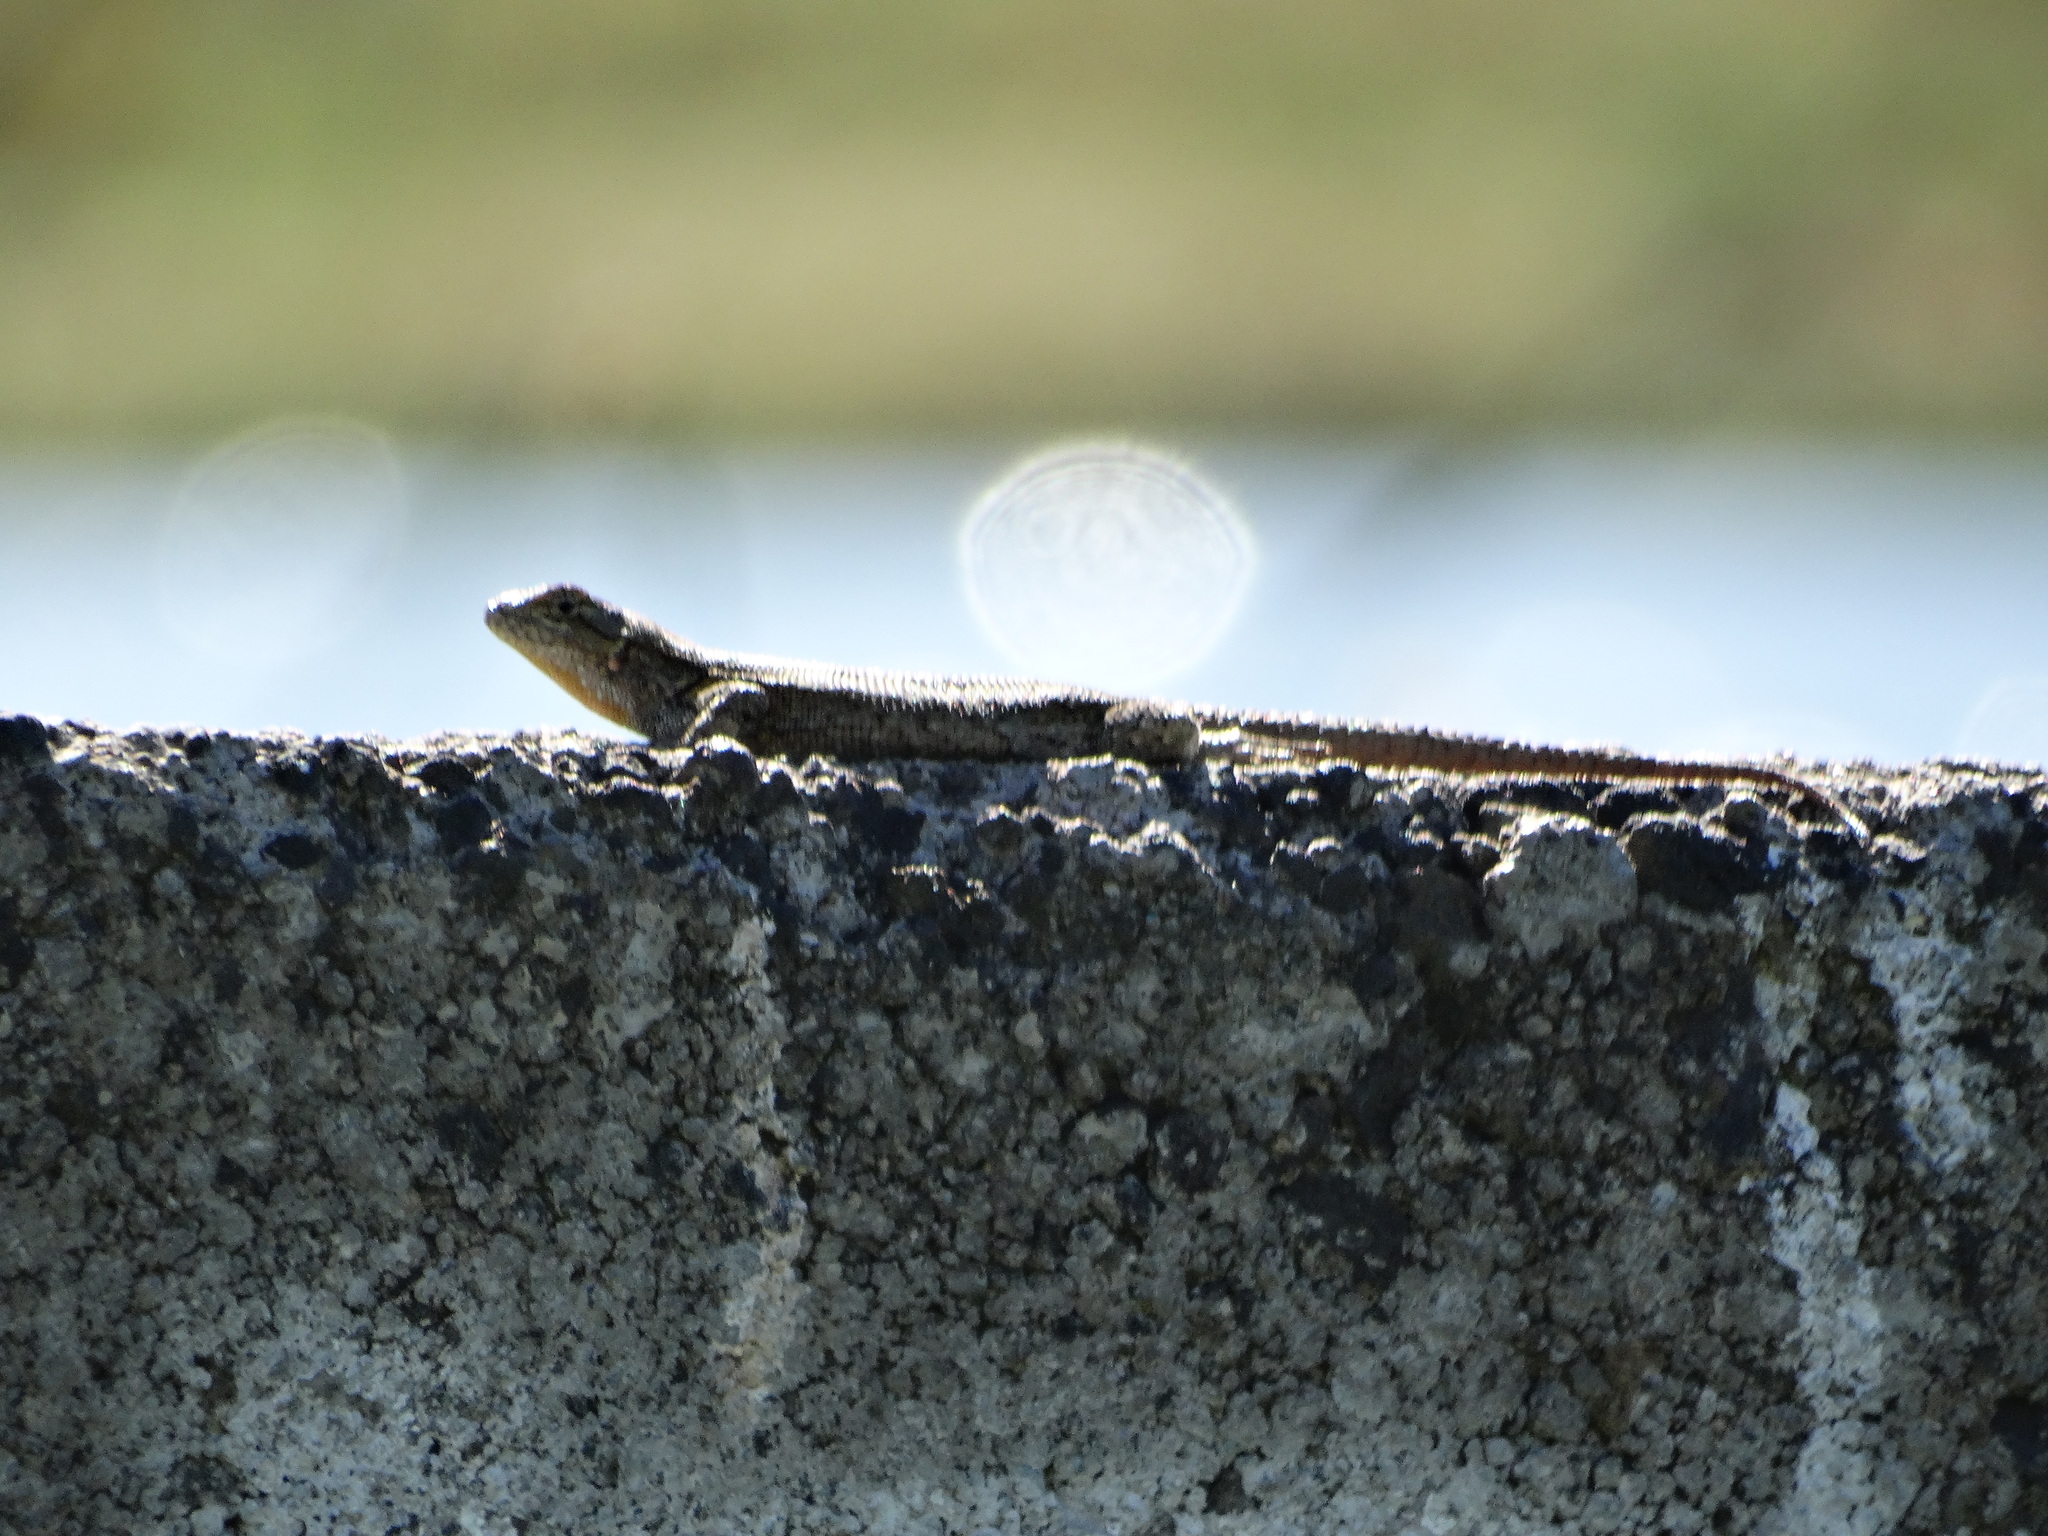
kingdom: Animalia
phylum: Chordata
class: Squamata
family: Phrynosomatidae
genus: Sceloporus
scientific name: Sceloporus grammicus
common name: Mesquite lizard
